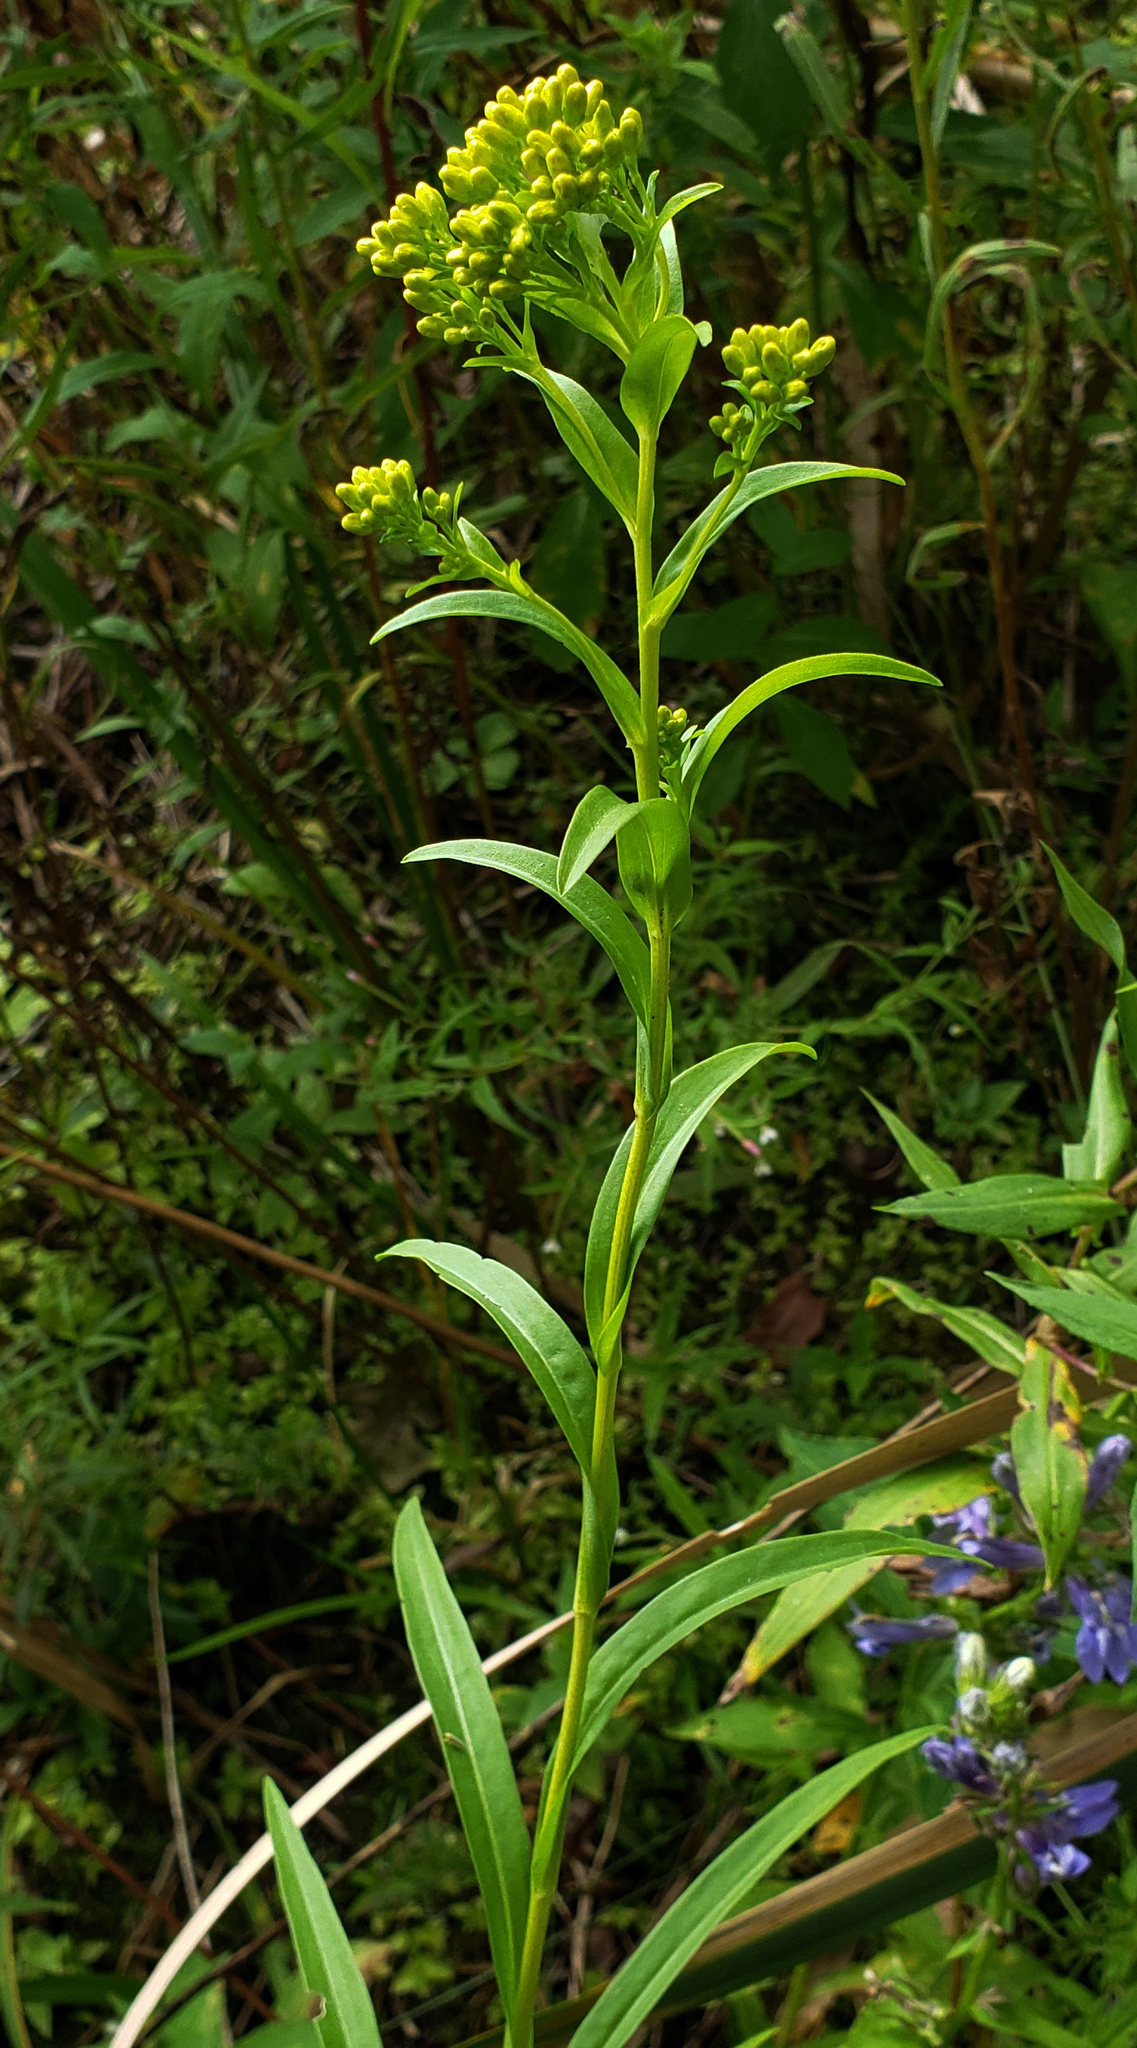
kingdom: Plantae
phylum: Tracheophyta
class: Magnoliopsida
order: Asterales
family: Asteraceae
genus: Solidago
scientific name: Solidago riddellii
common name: Riddell's goldenrod
